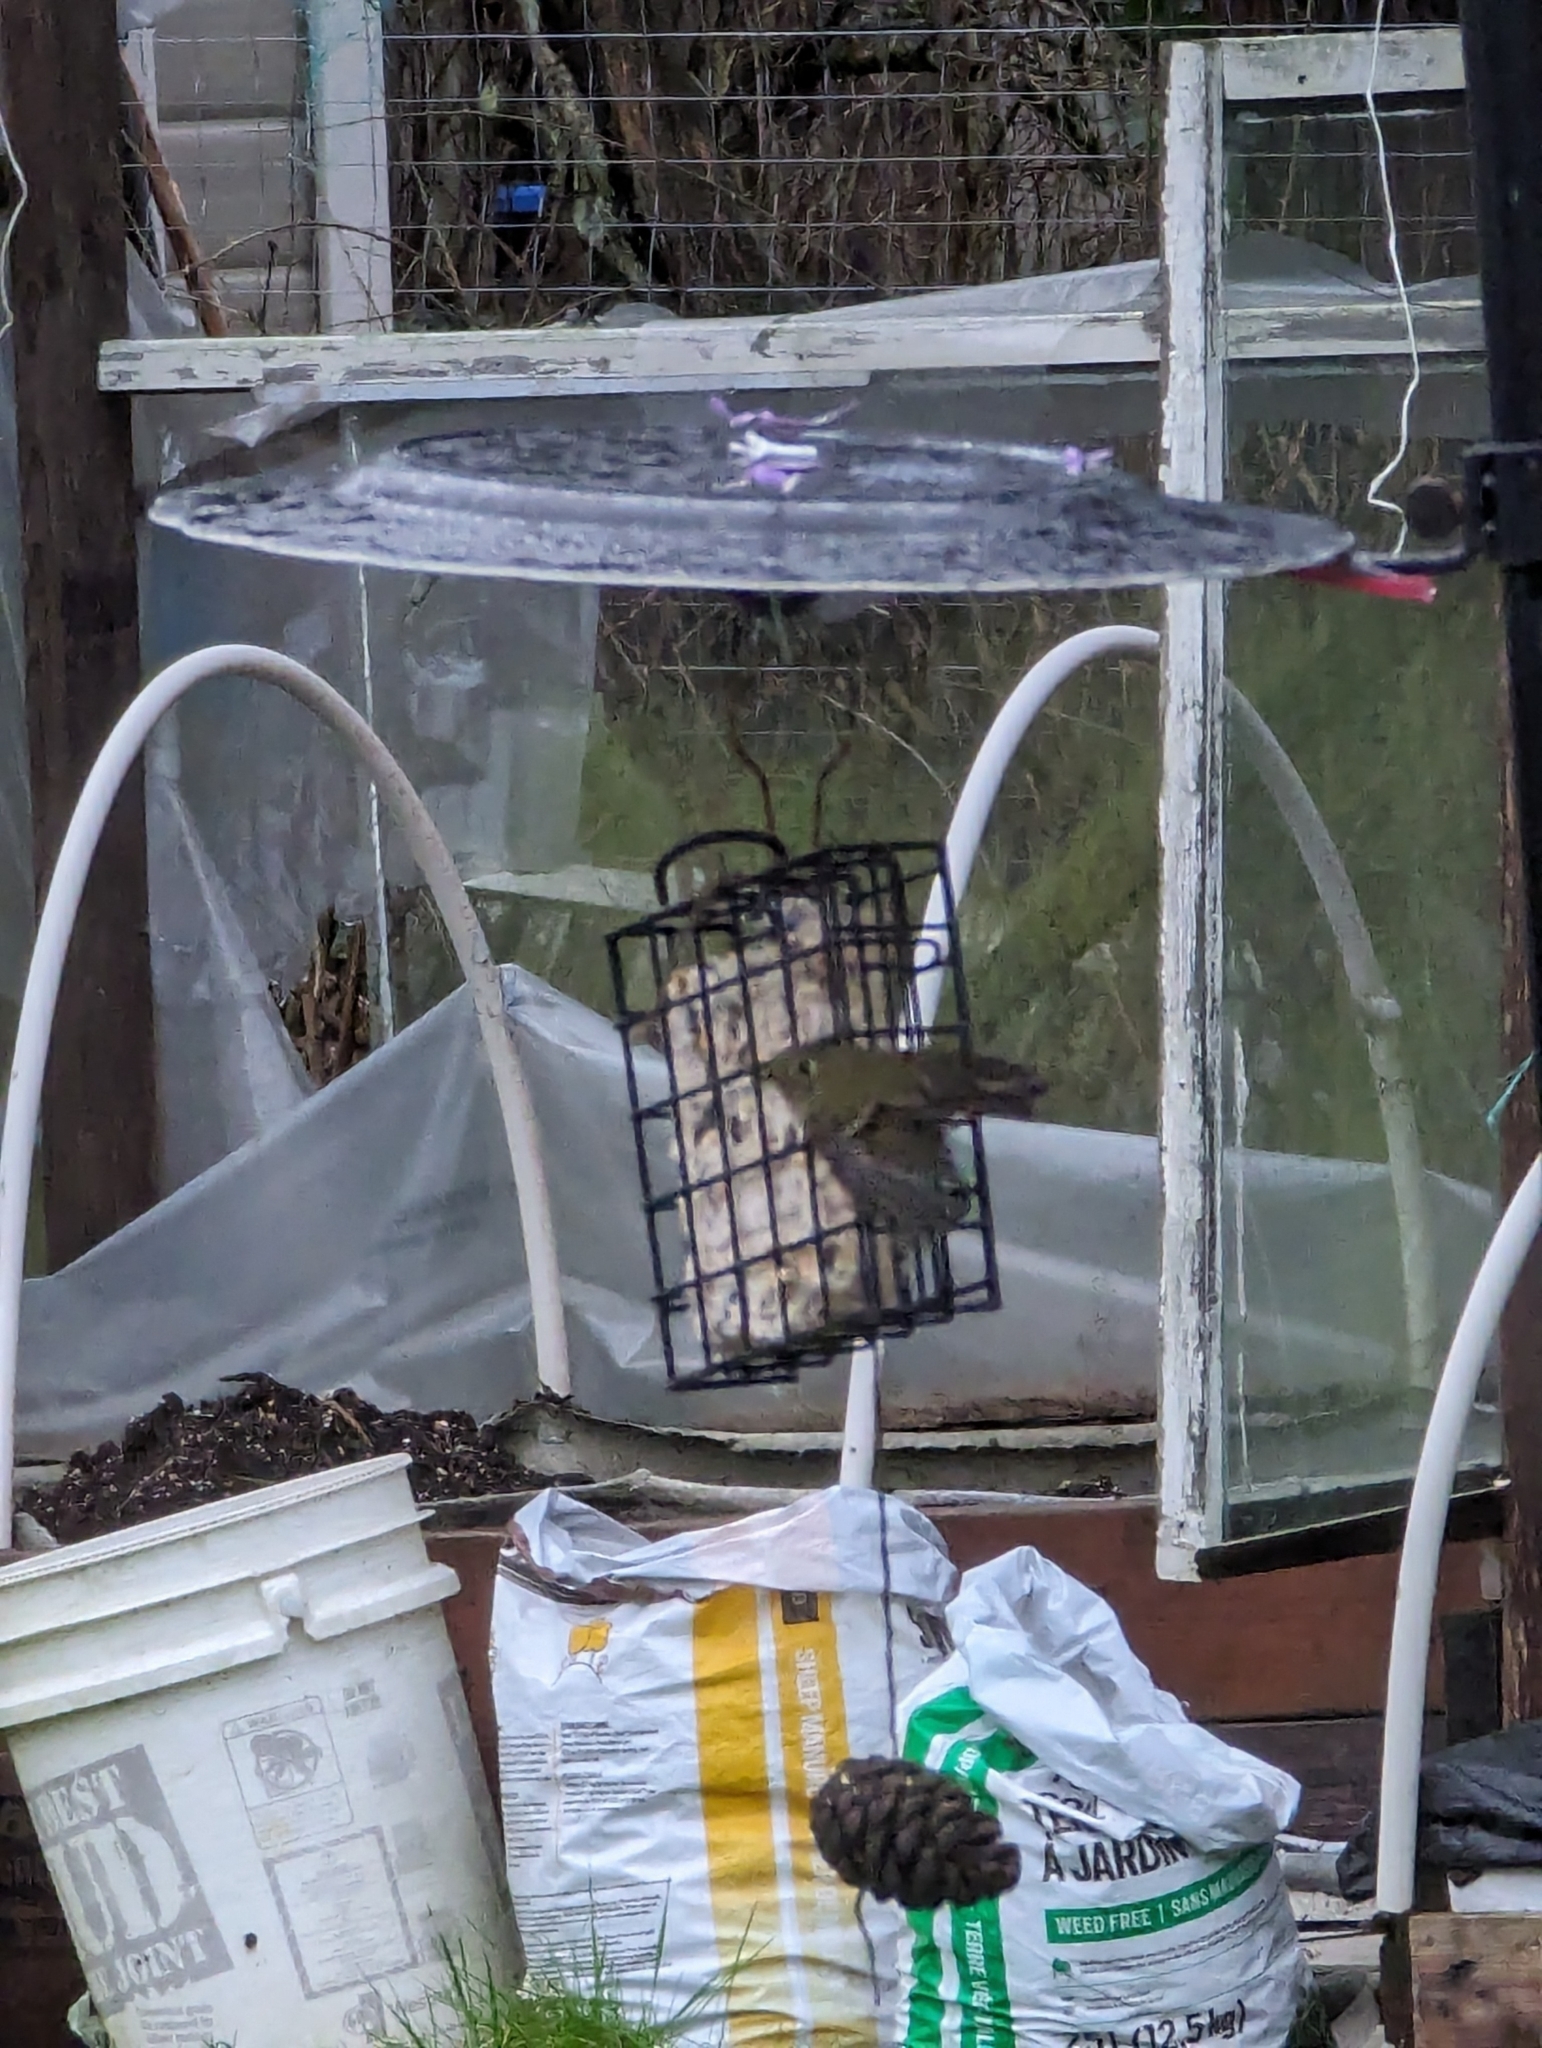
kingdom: Animalia
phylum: Chordata
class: Aves
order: Passeriformes
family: Regulidae
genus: Regulus
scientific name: Regulus calendula
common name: Ruby-crowned kinglet
